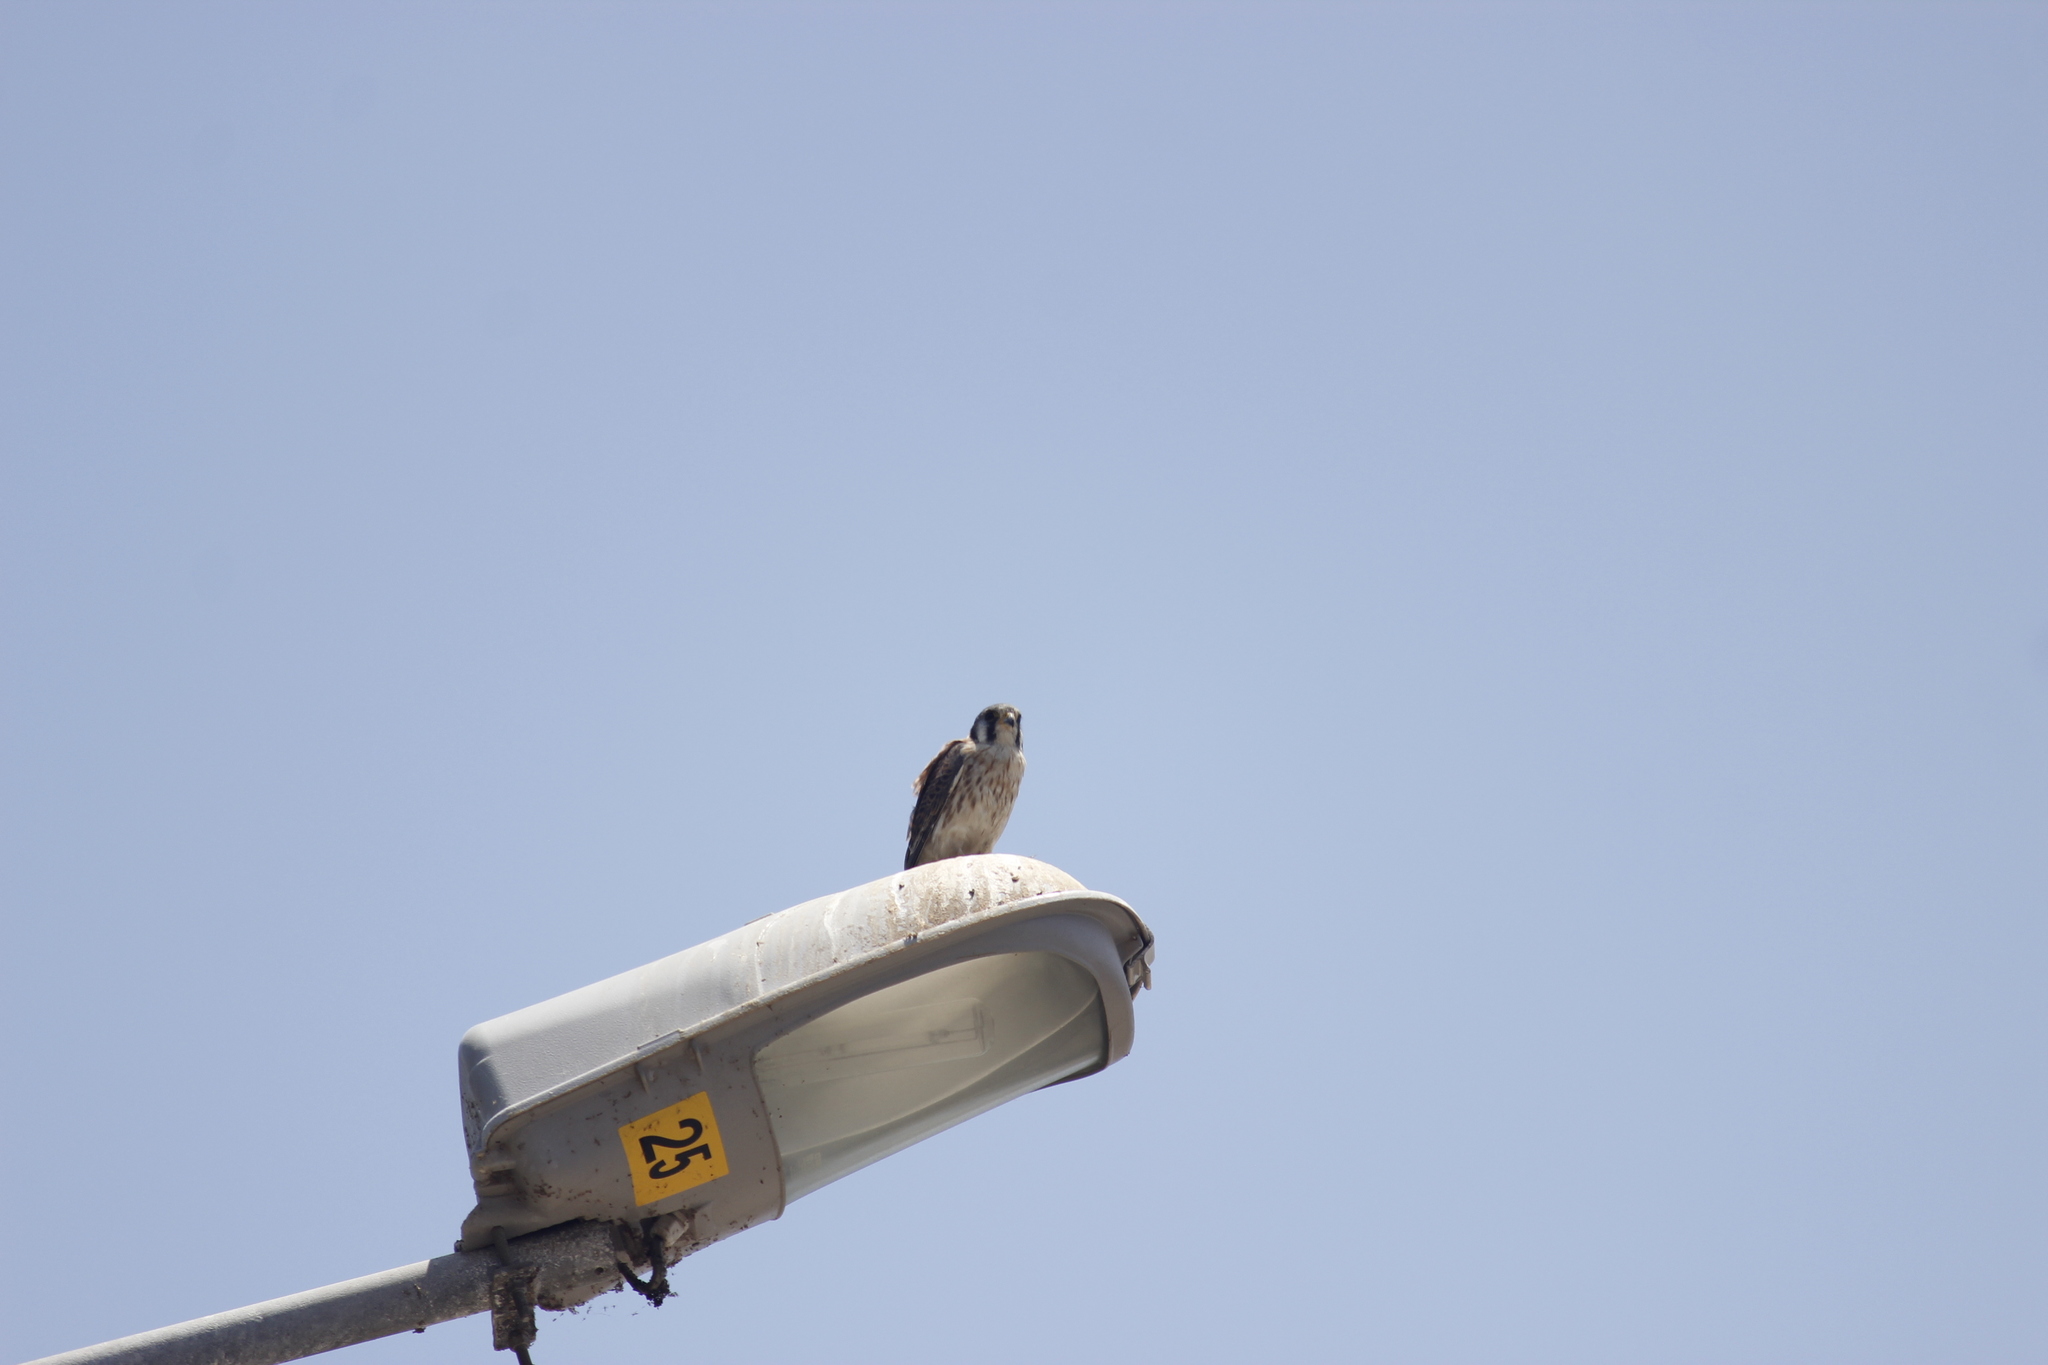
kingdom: Animalia
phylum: Chordata
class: Aves
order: Falconiformes
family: Falconidae
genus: Falco
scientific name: Falco sparverius
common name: American kestrel
